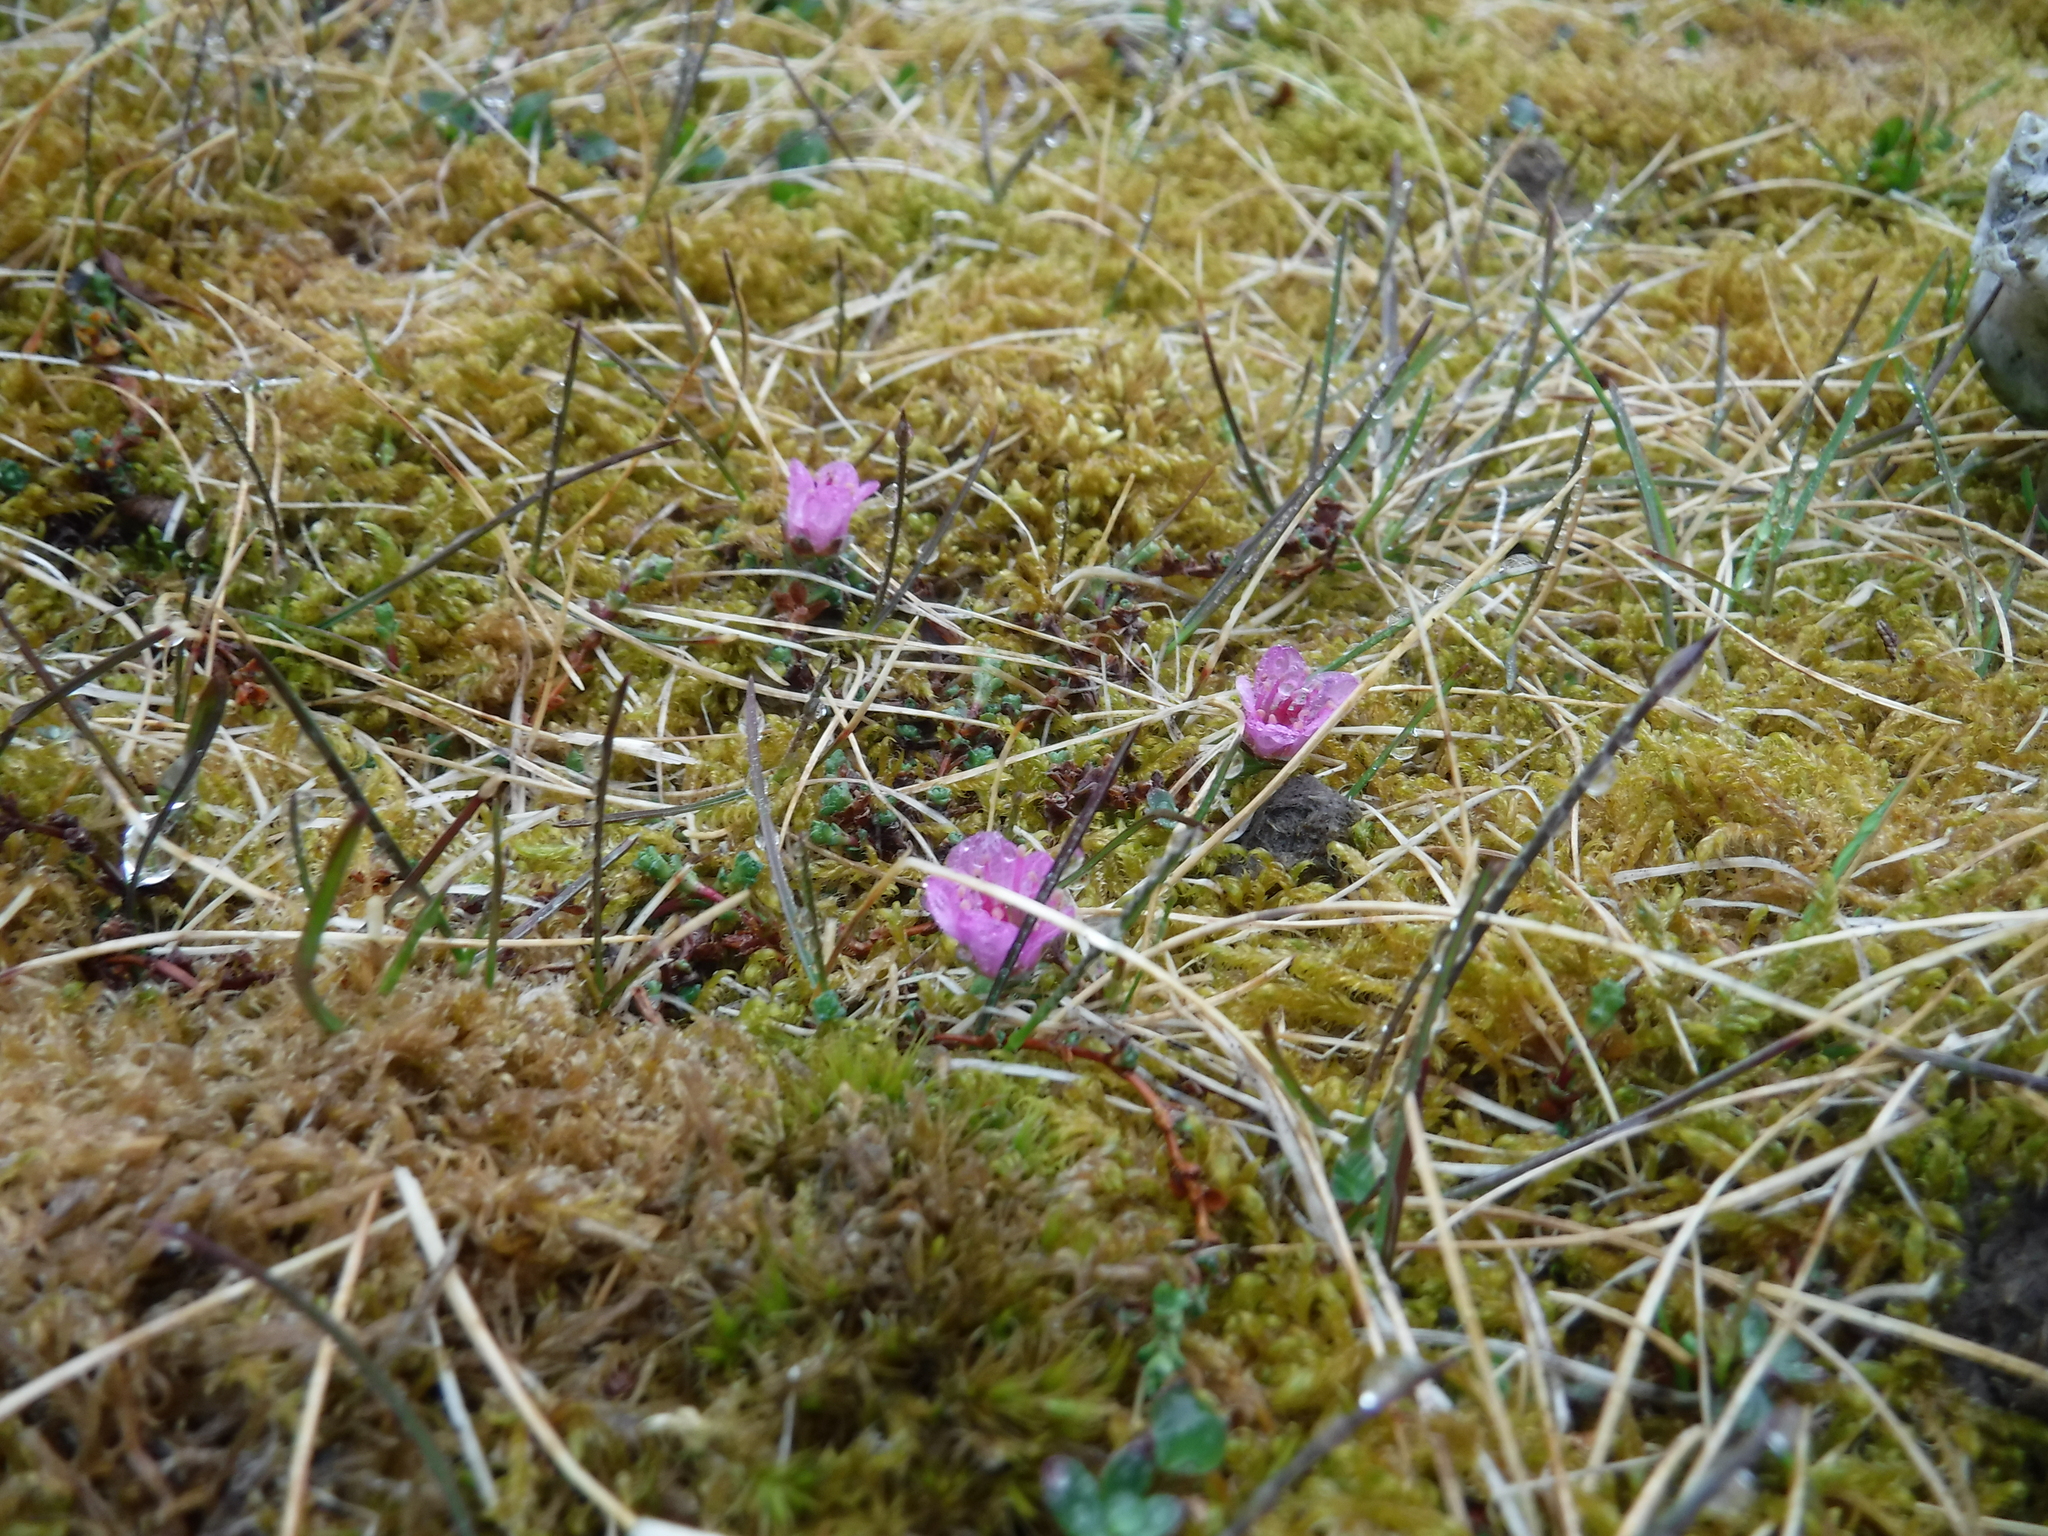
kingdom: Plantae
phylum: Tracheophyta
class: Magnoliopsida
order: Saxifragales
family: Saxifragaceae
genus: Saxifraga
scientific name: Saxifraga oppositifolia
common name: Purple saxifrage
